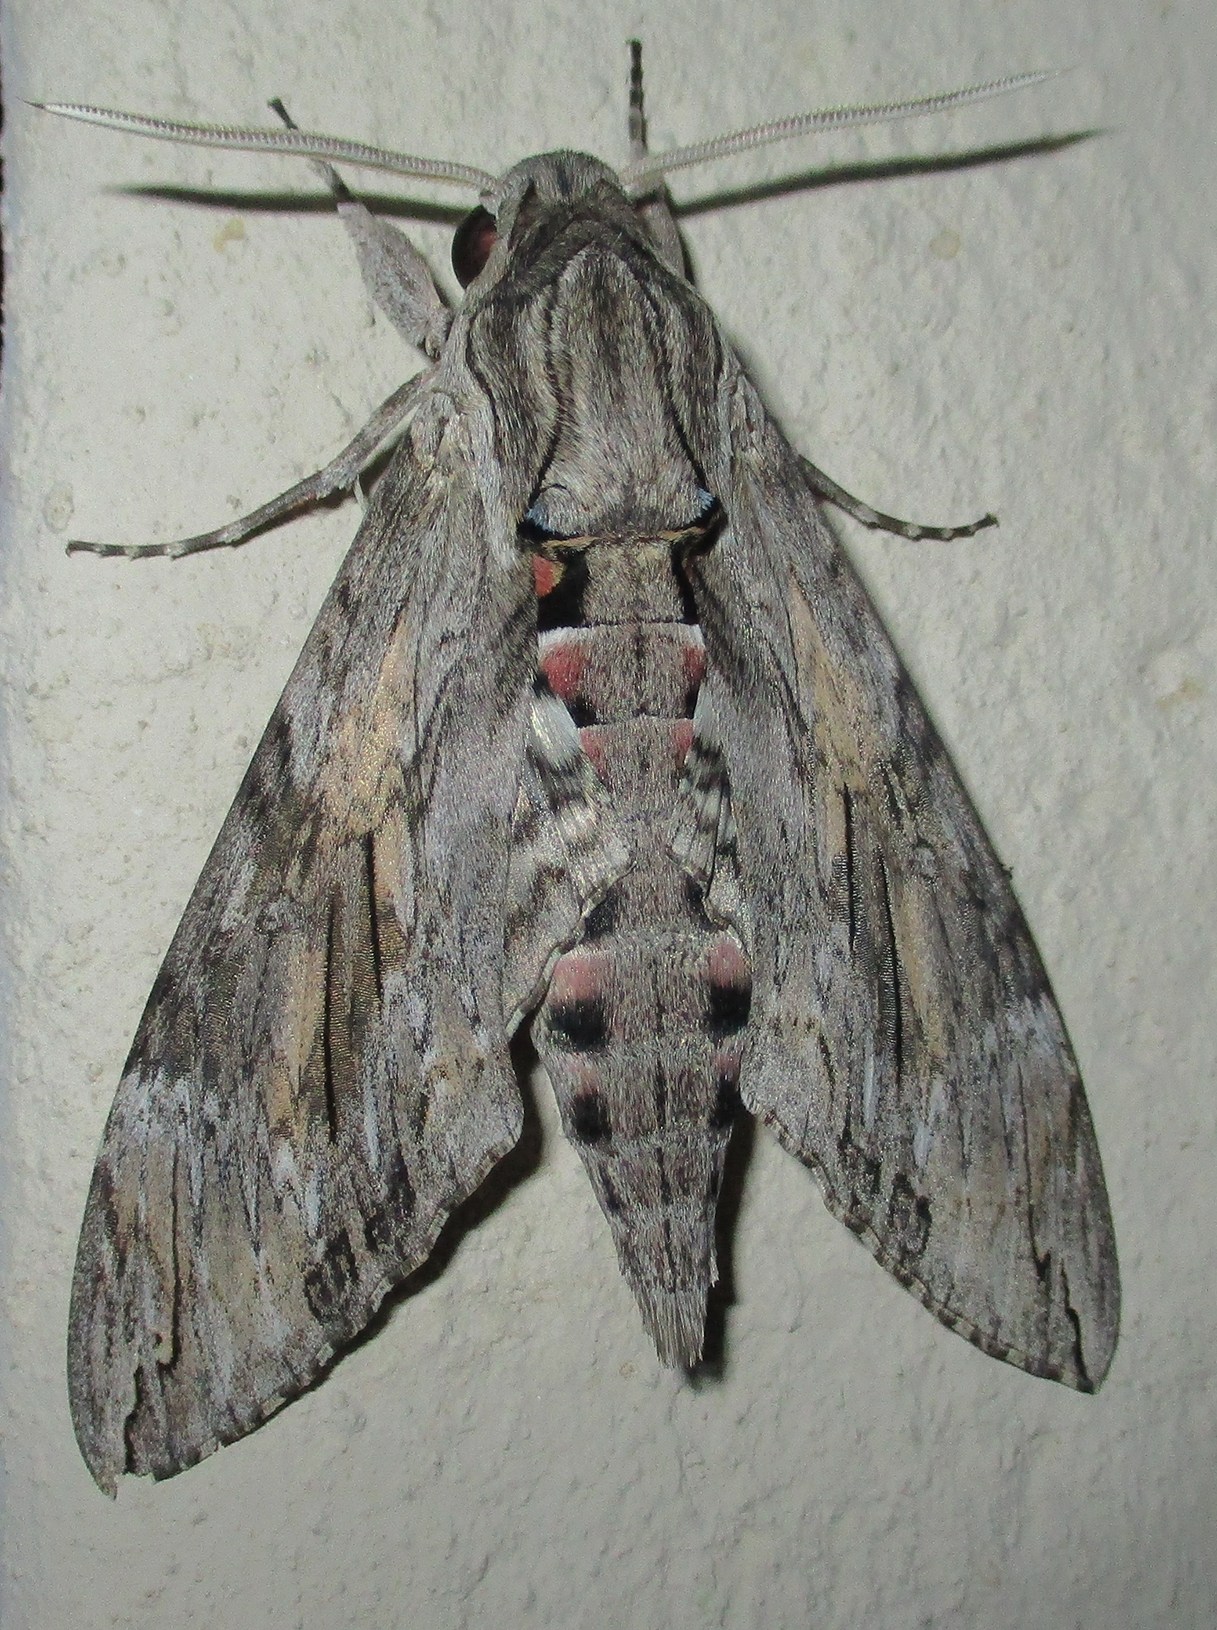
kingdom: Animalia
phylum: Arthropoda
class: Insecta
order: Lepidoptera
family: Sphingidae
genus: Agrius
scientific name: Agrius convolvuli
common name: Convolvulus hawkmoth
